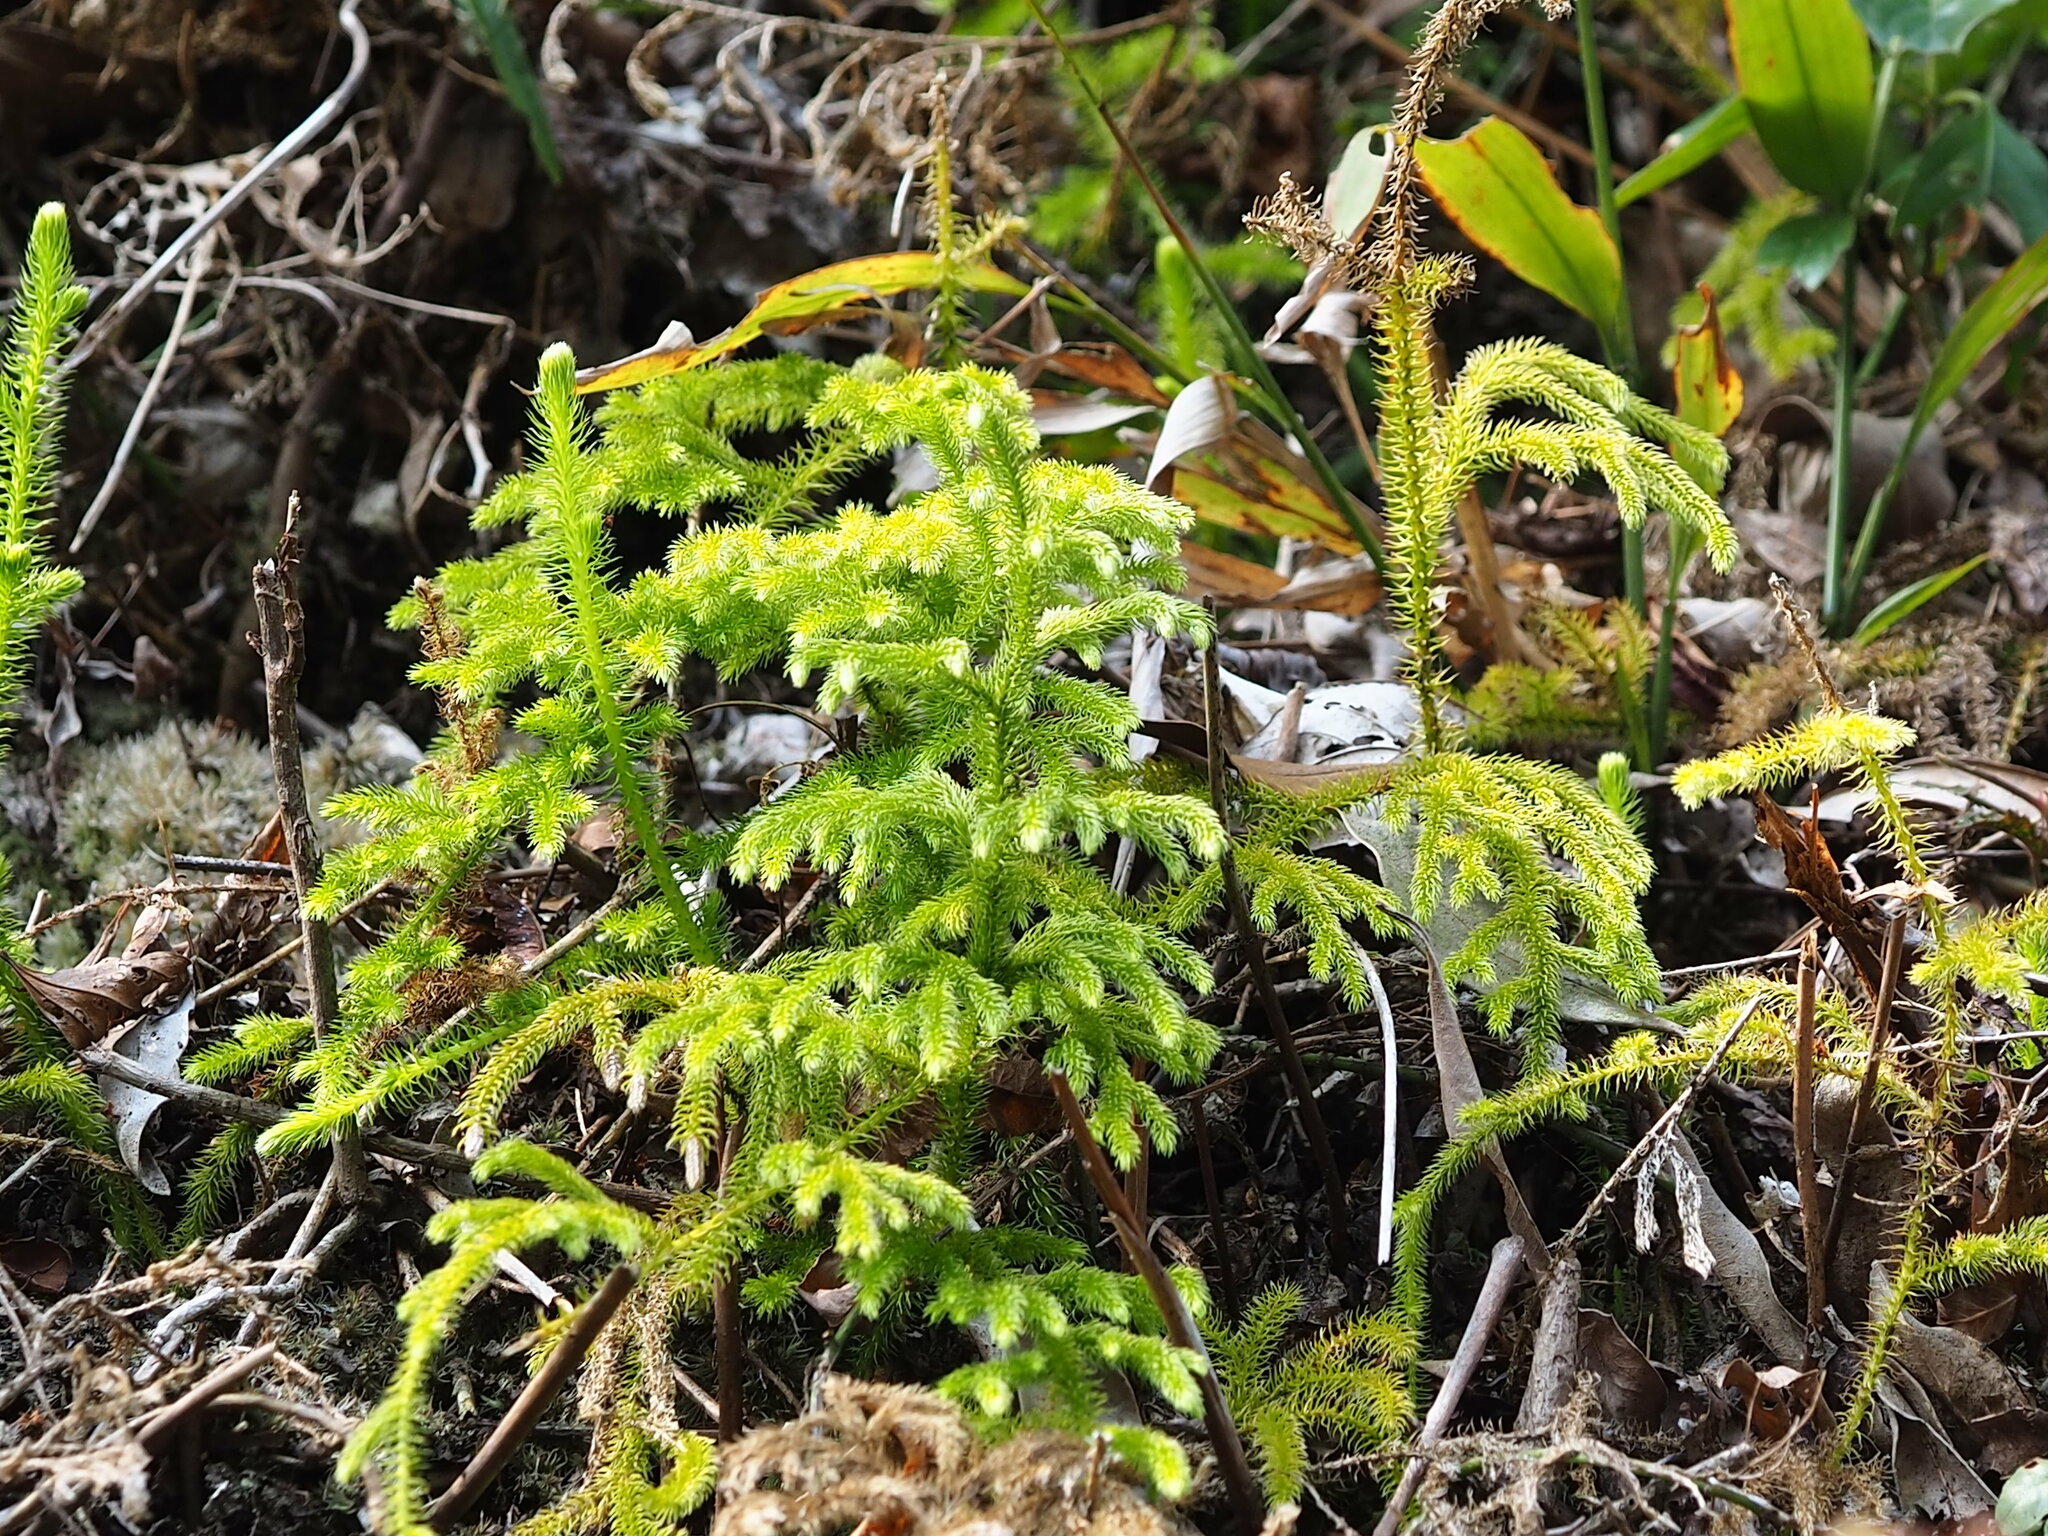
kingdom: Plantae
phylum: Tracheophyta
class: Lycopodiopsida
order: Lycopodiales
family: Lycopodiaceae
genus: Palhinhaea
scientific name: Palhinhaea cernua
